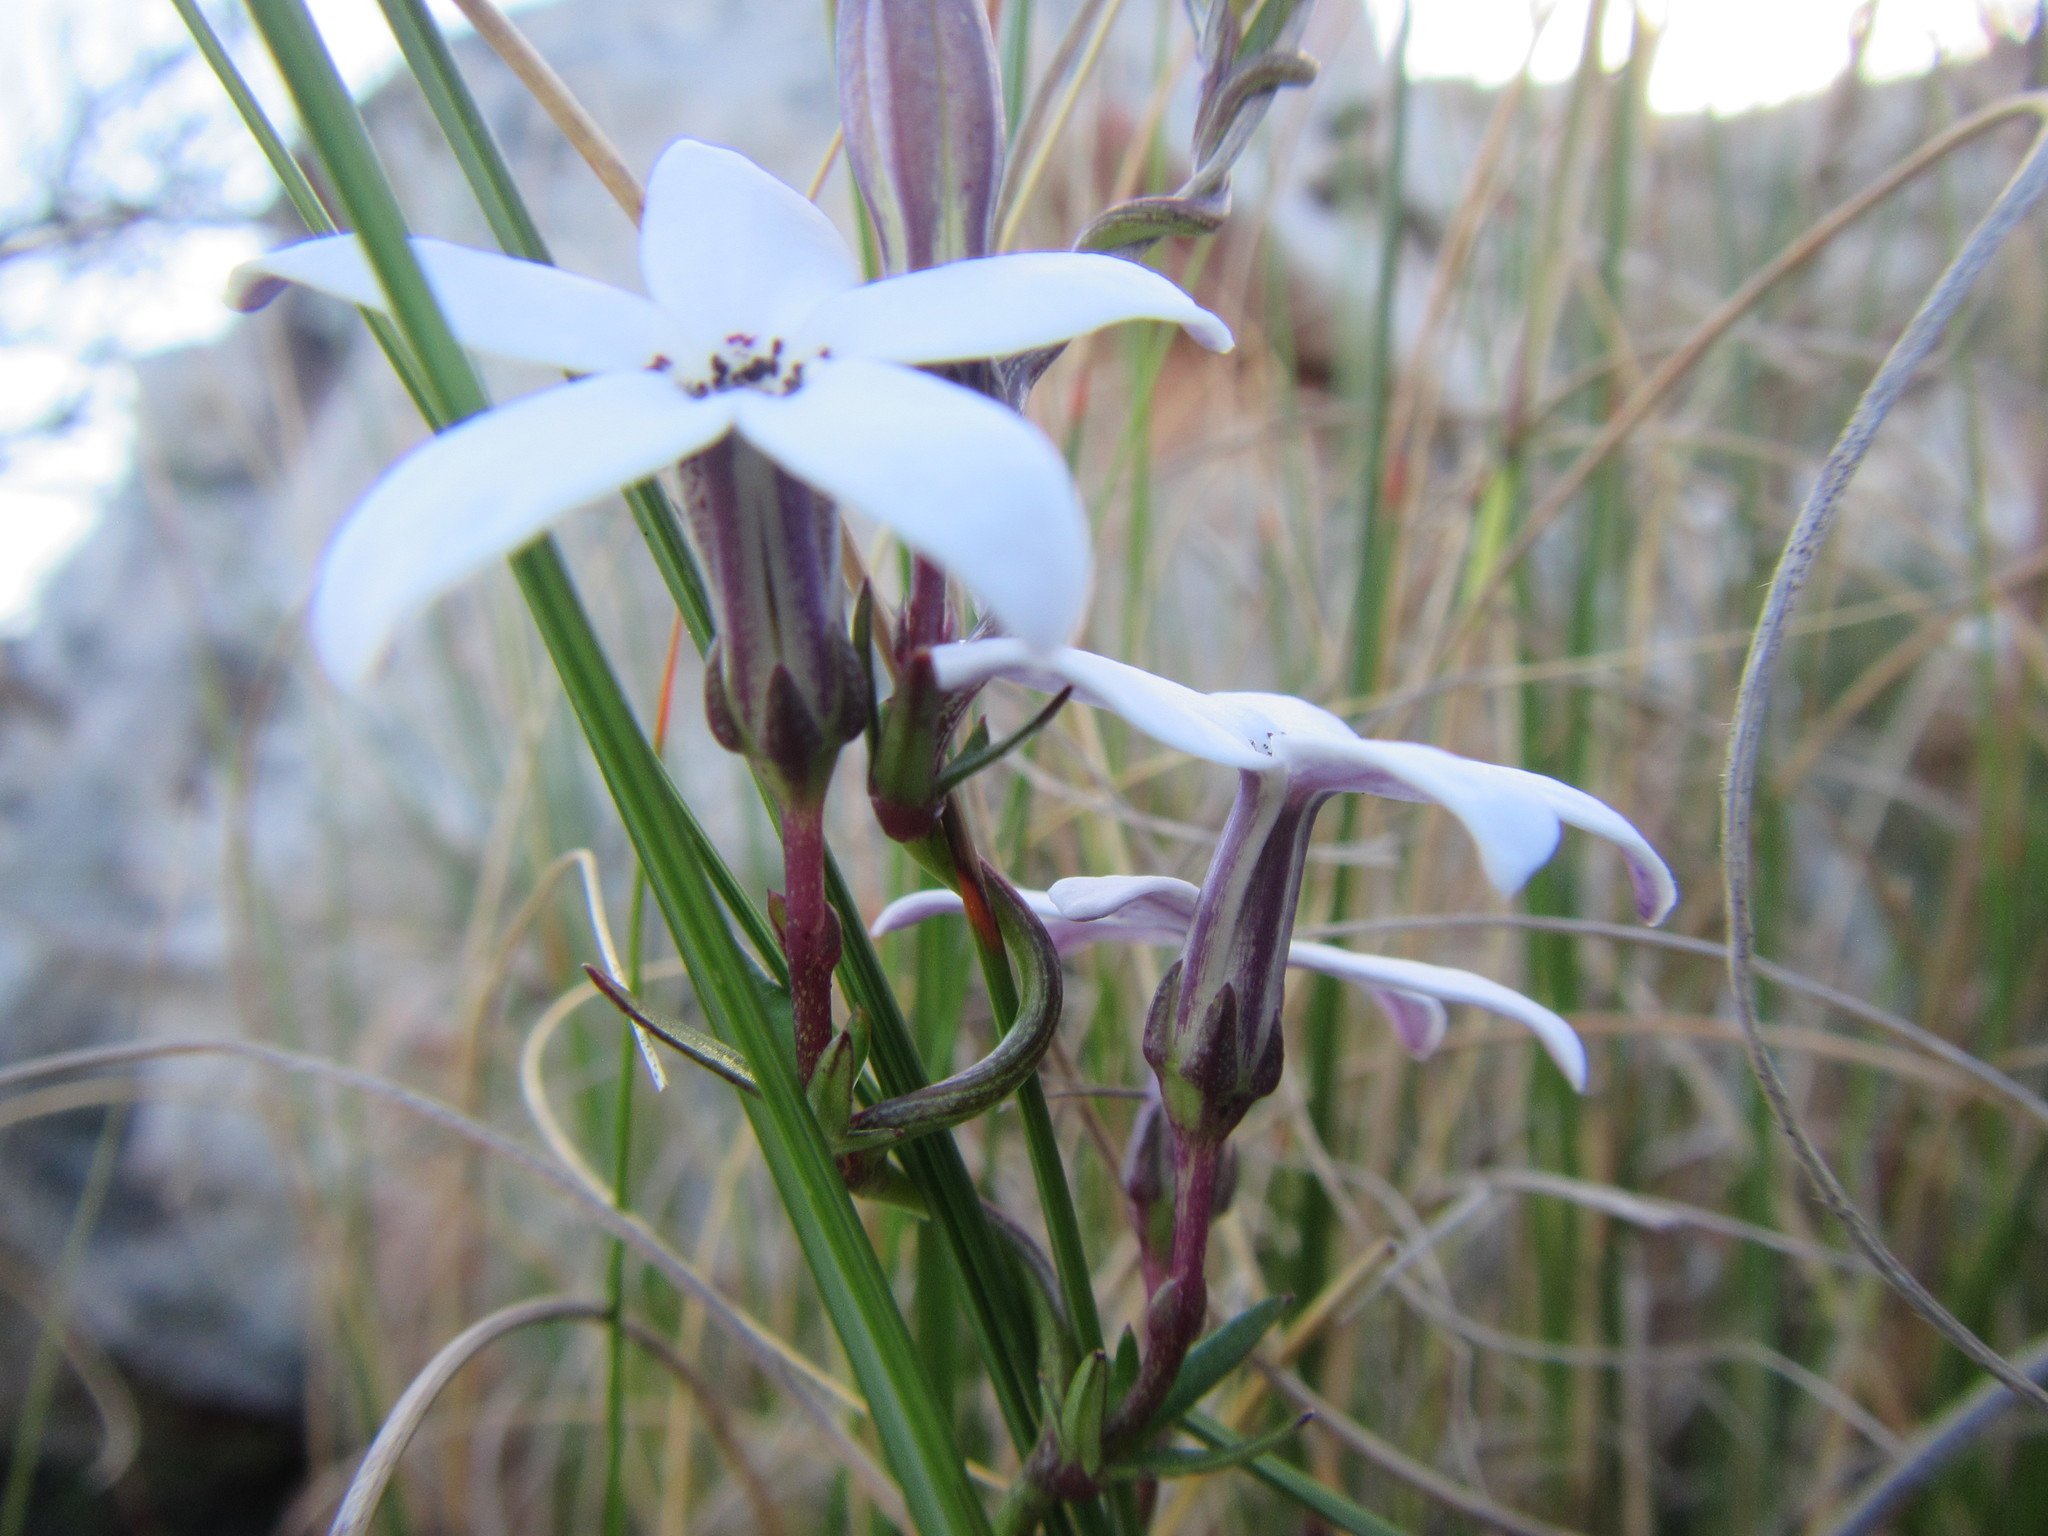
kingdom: Plantae
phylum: Tracheophyta
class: Magnoliopsida
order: Asterales
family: Campanulaceae
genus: Cyphia
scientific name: Cyphia volubilis
